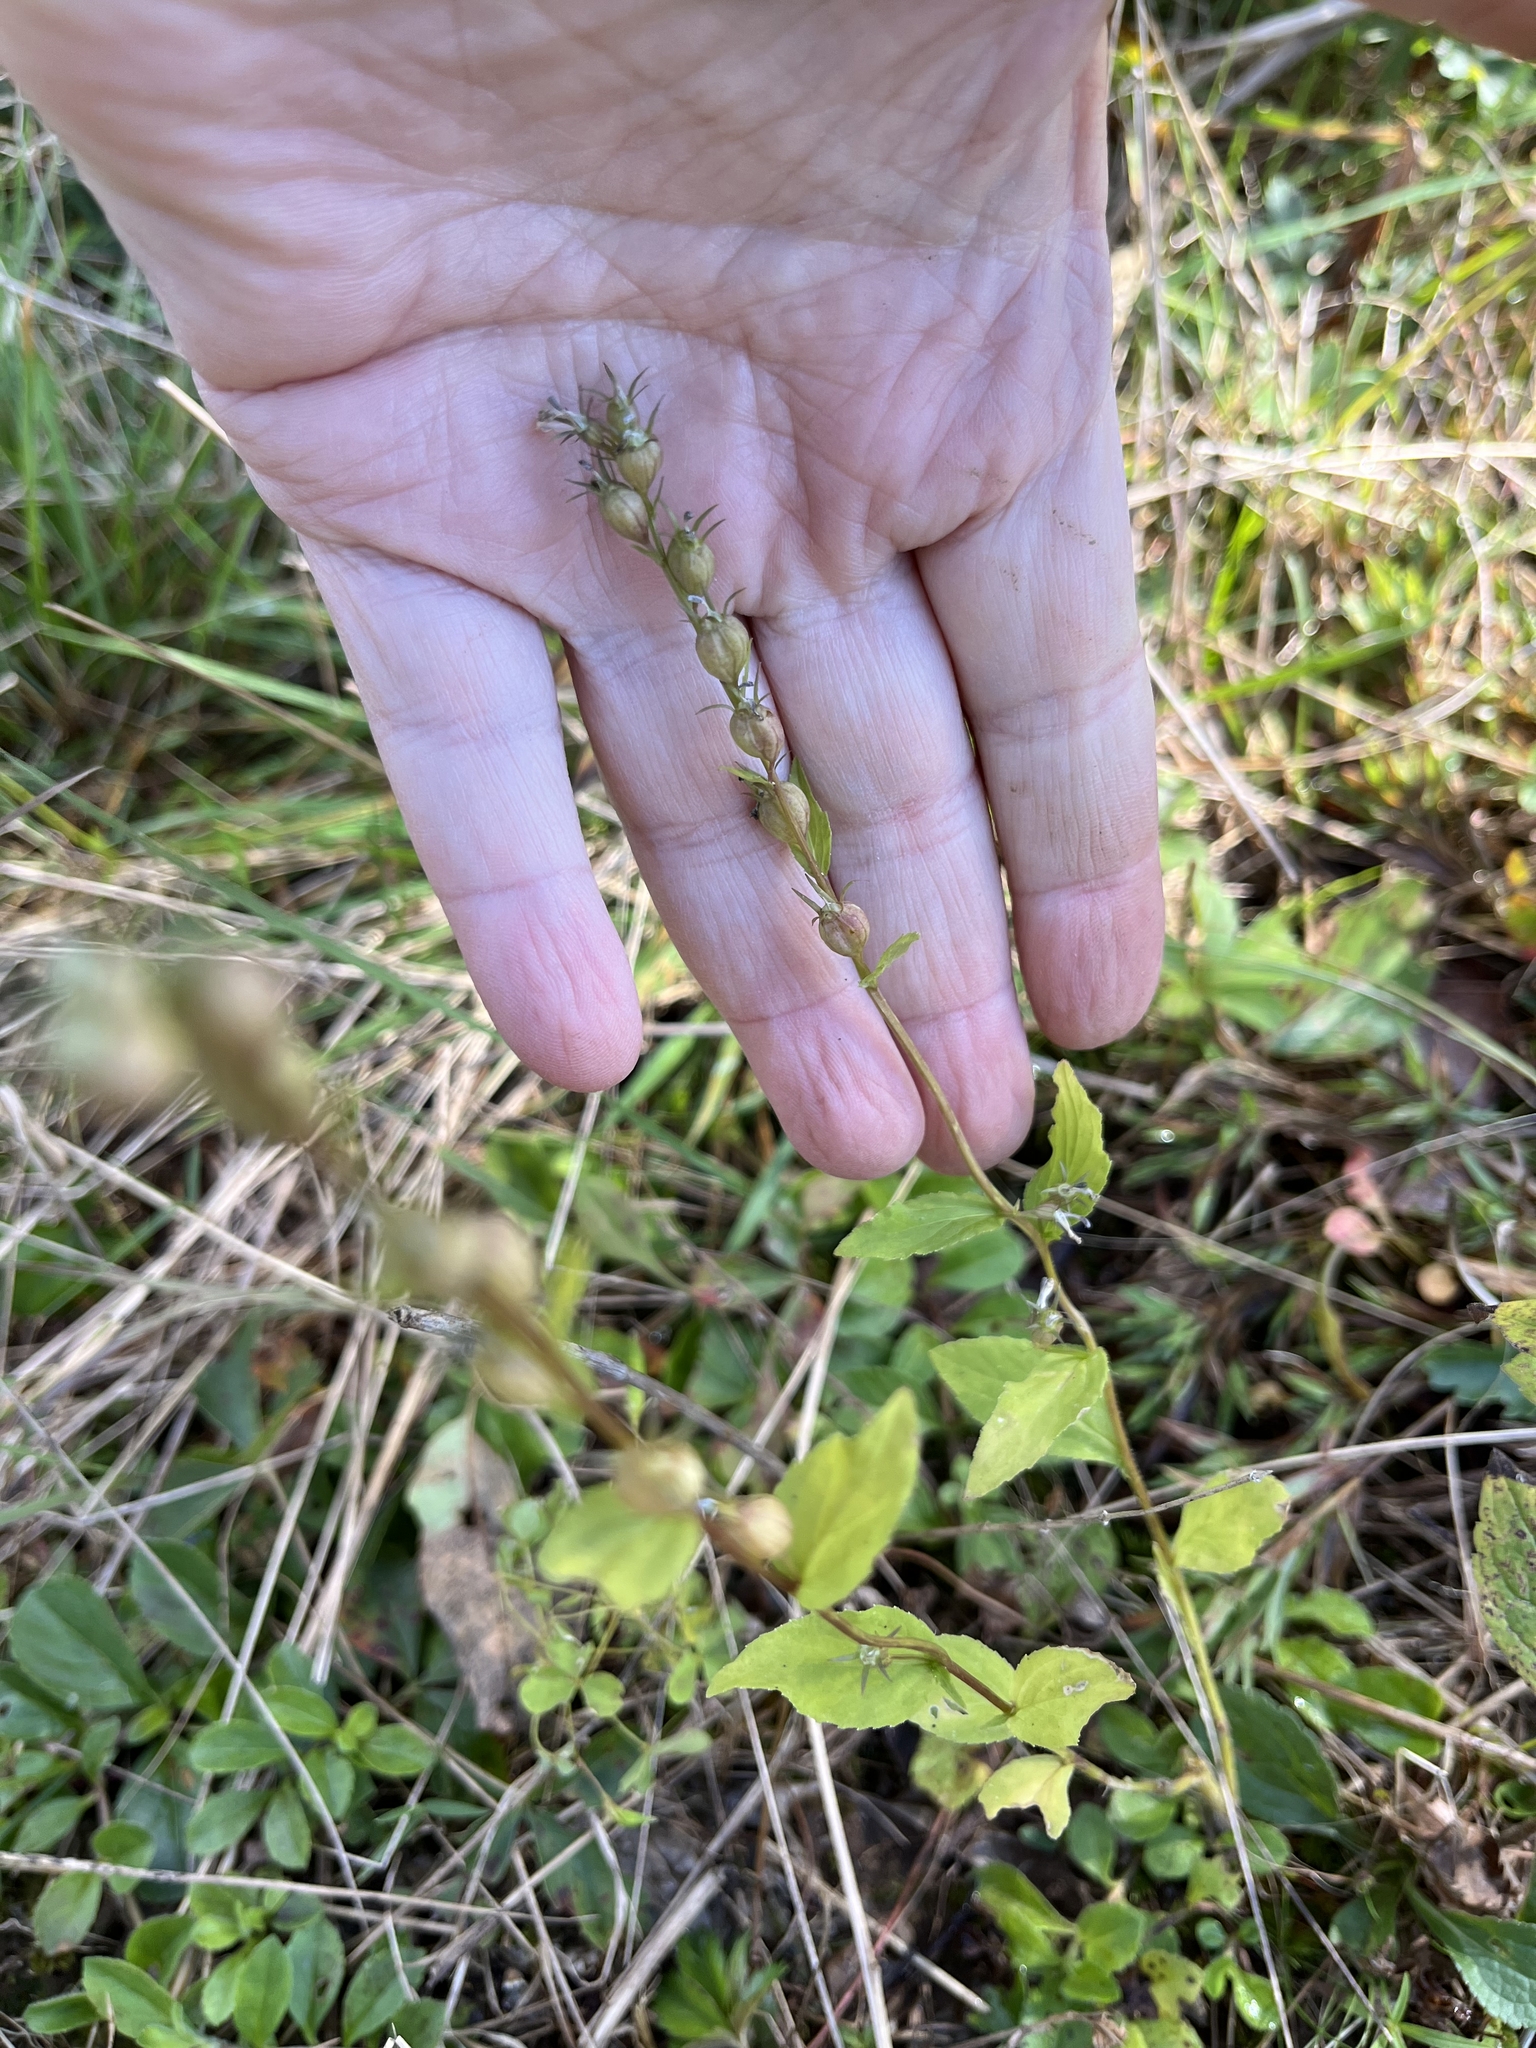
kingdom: Plantae
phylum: Tracheophyta
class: Magnoliopsida
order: Asterales
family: Campanulaceae
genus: Lobelia
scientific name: Lobelia inflata
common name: Indian tobacco
